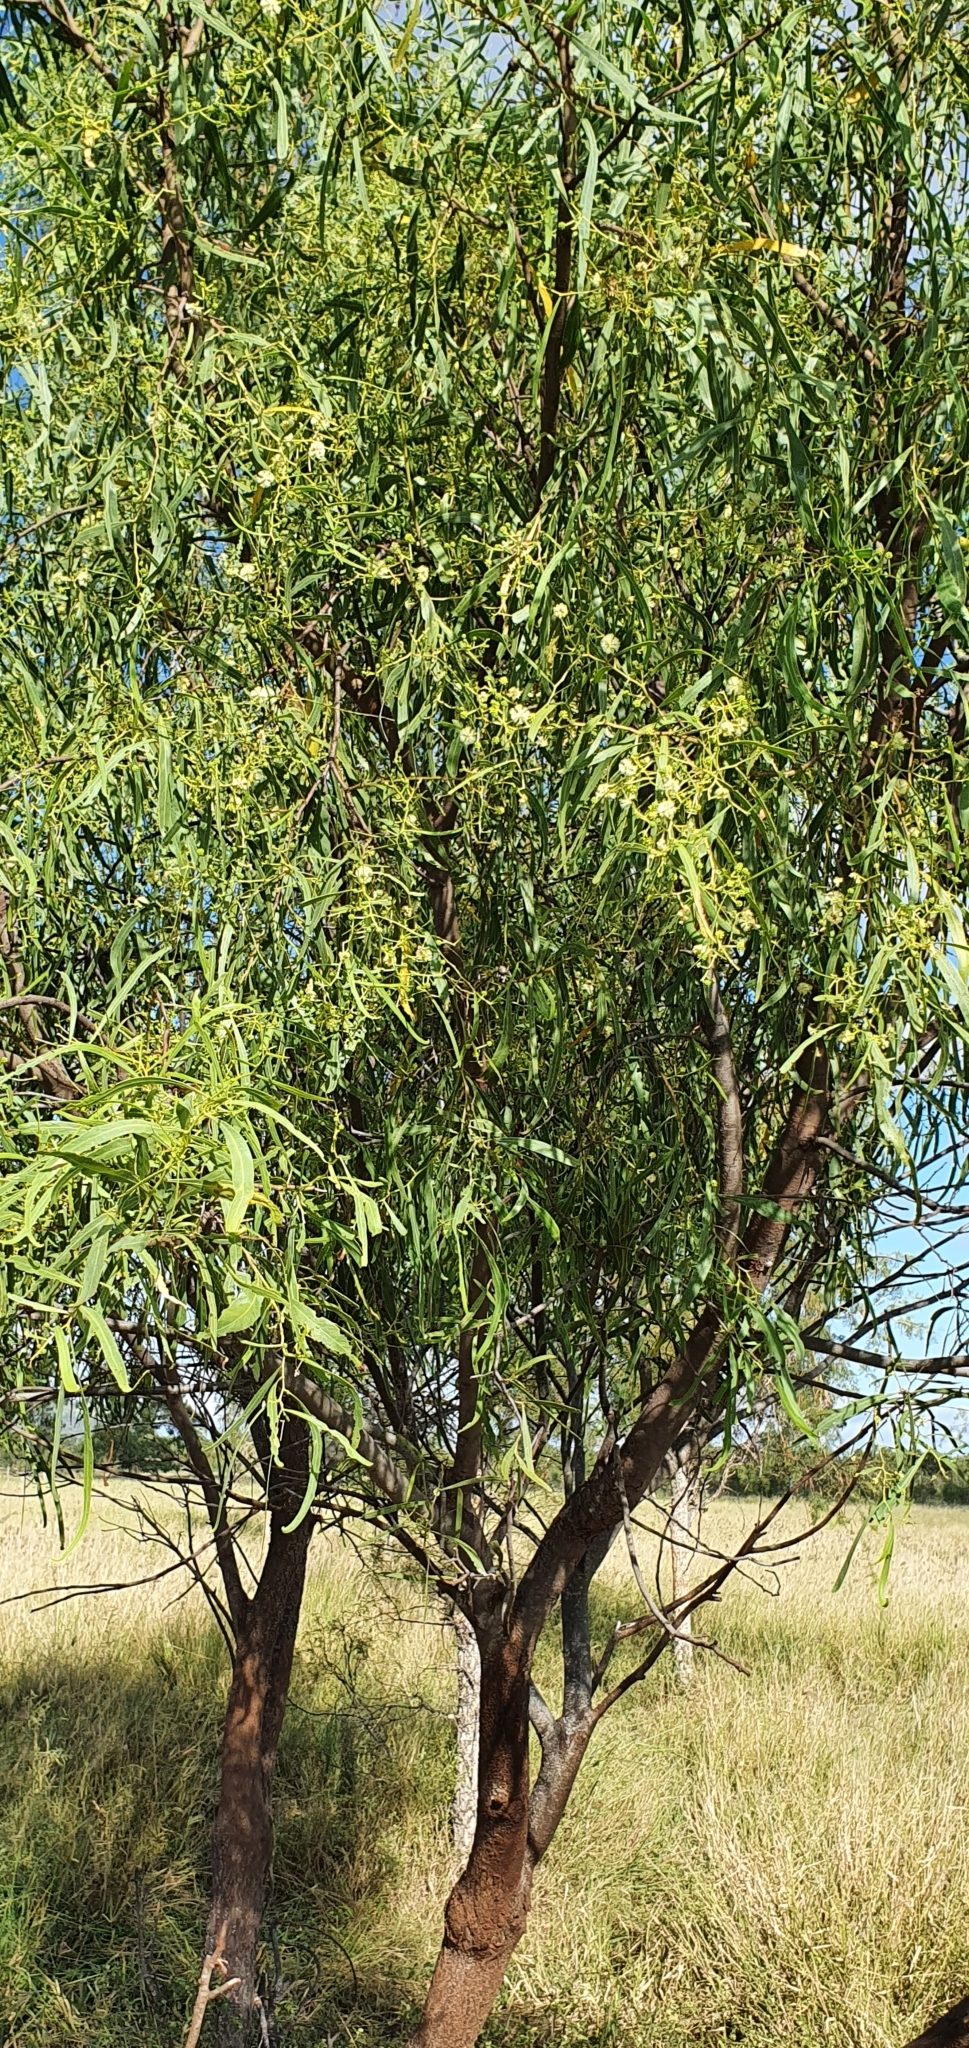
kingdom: Plantae
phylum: Tracheophyta
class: Magnoliopsida
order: Fabales
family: Fabaceae
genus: Acacia
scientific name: Acacia salicina
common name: Broughton willow wattle
